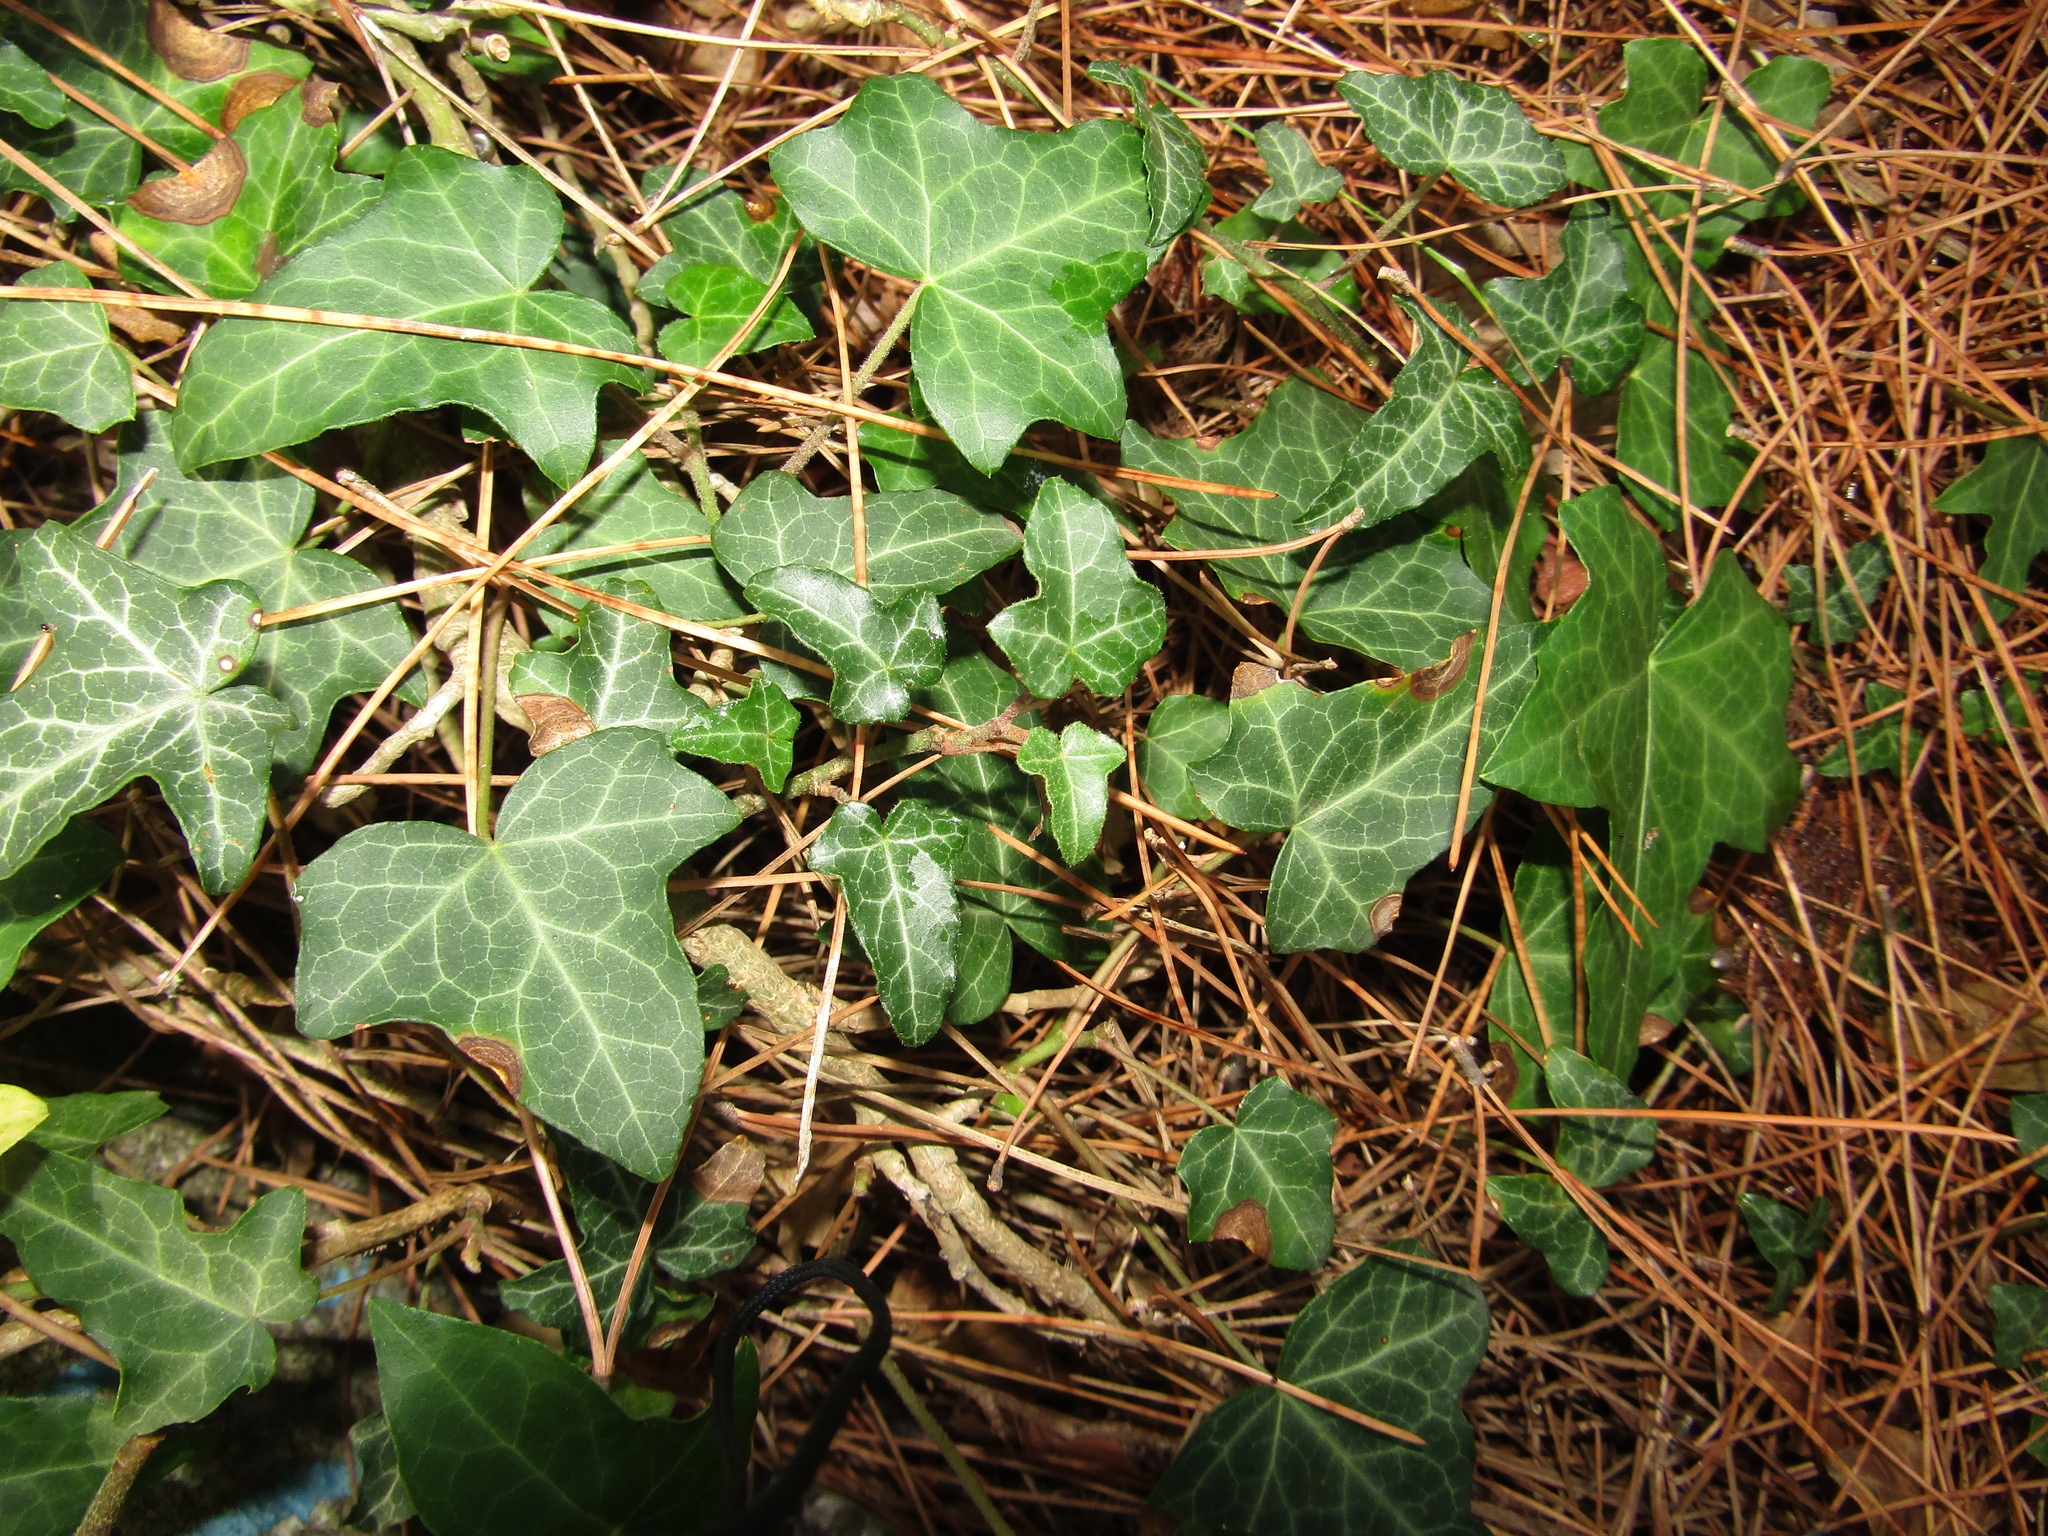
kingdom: Plantae
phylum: Tracheophyta
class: Magnoliopsida
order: Apiales
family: Araliaceae
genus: Hedera
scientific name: Hedera helix
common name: Ivy
